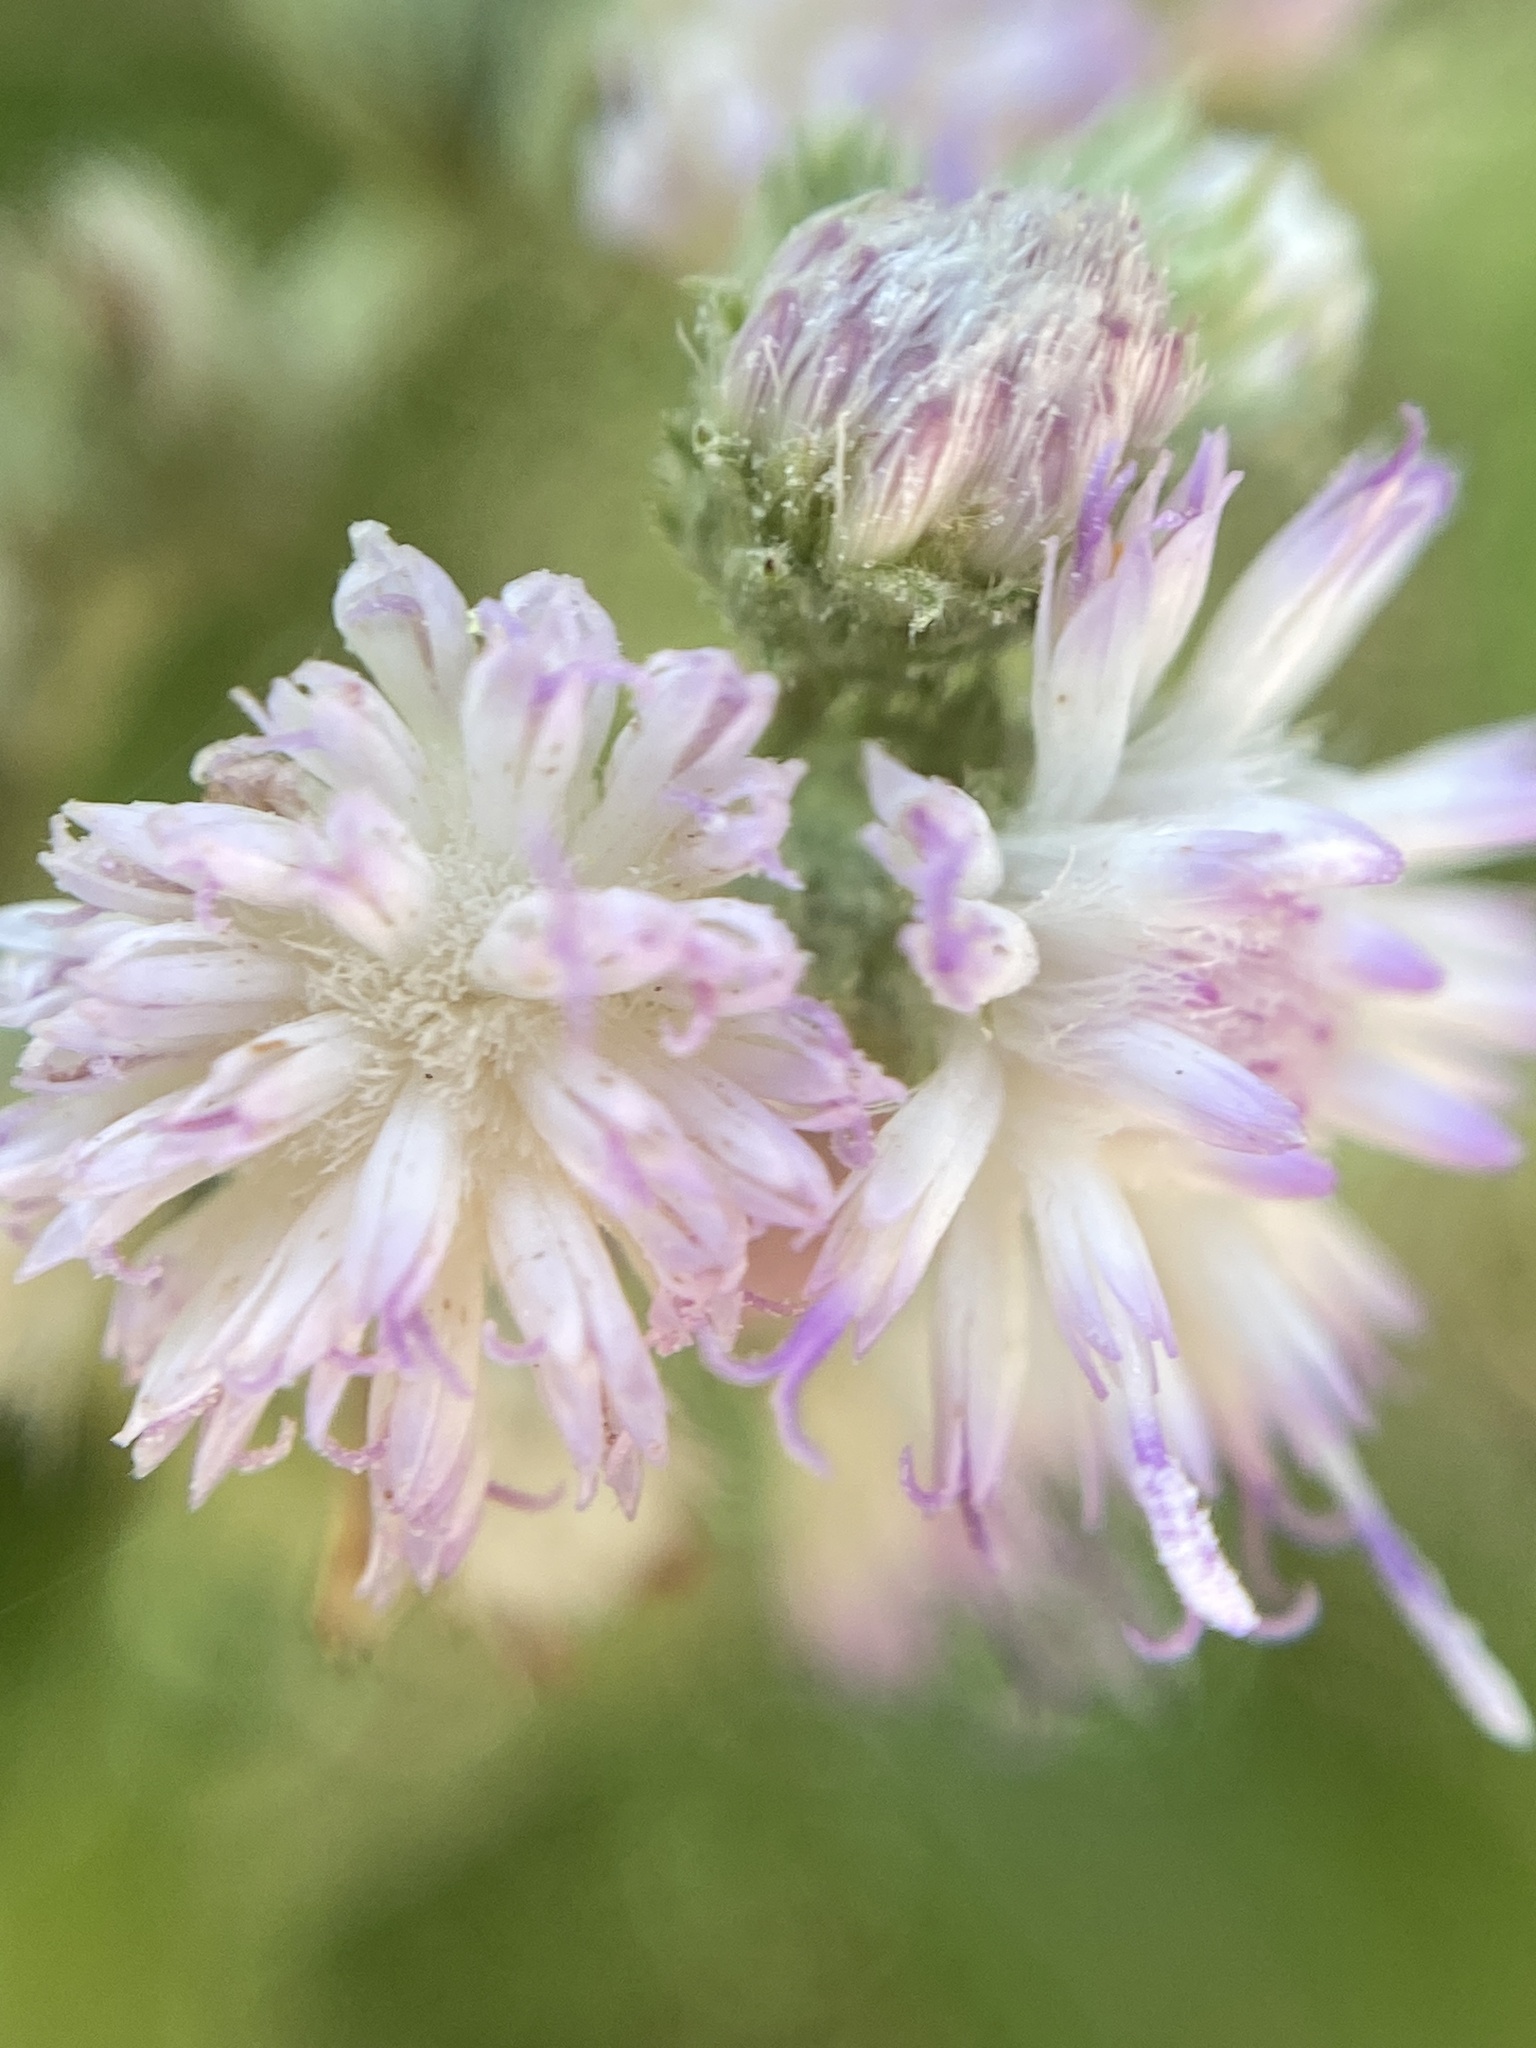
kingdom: Plantae
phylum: Tracheophyta
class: Magnoliopsida
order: Asterales
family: Asteraceae
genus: Cyrtocymura
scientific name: Cyrtocymura scorpioides
